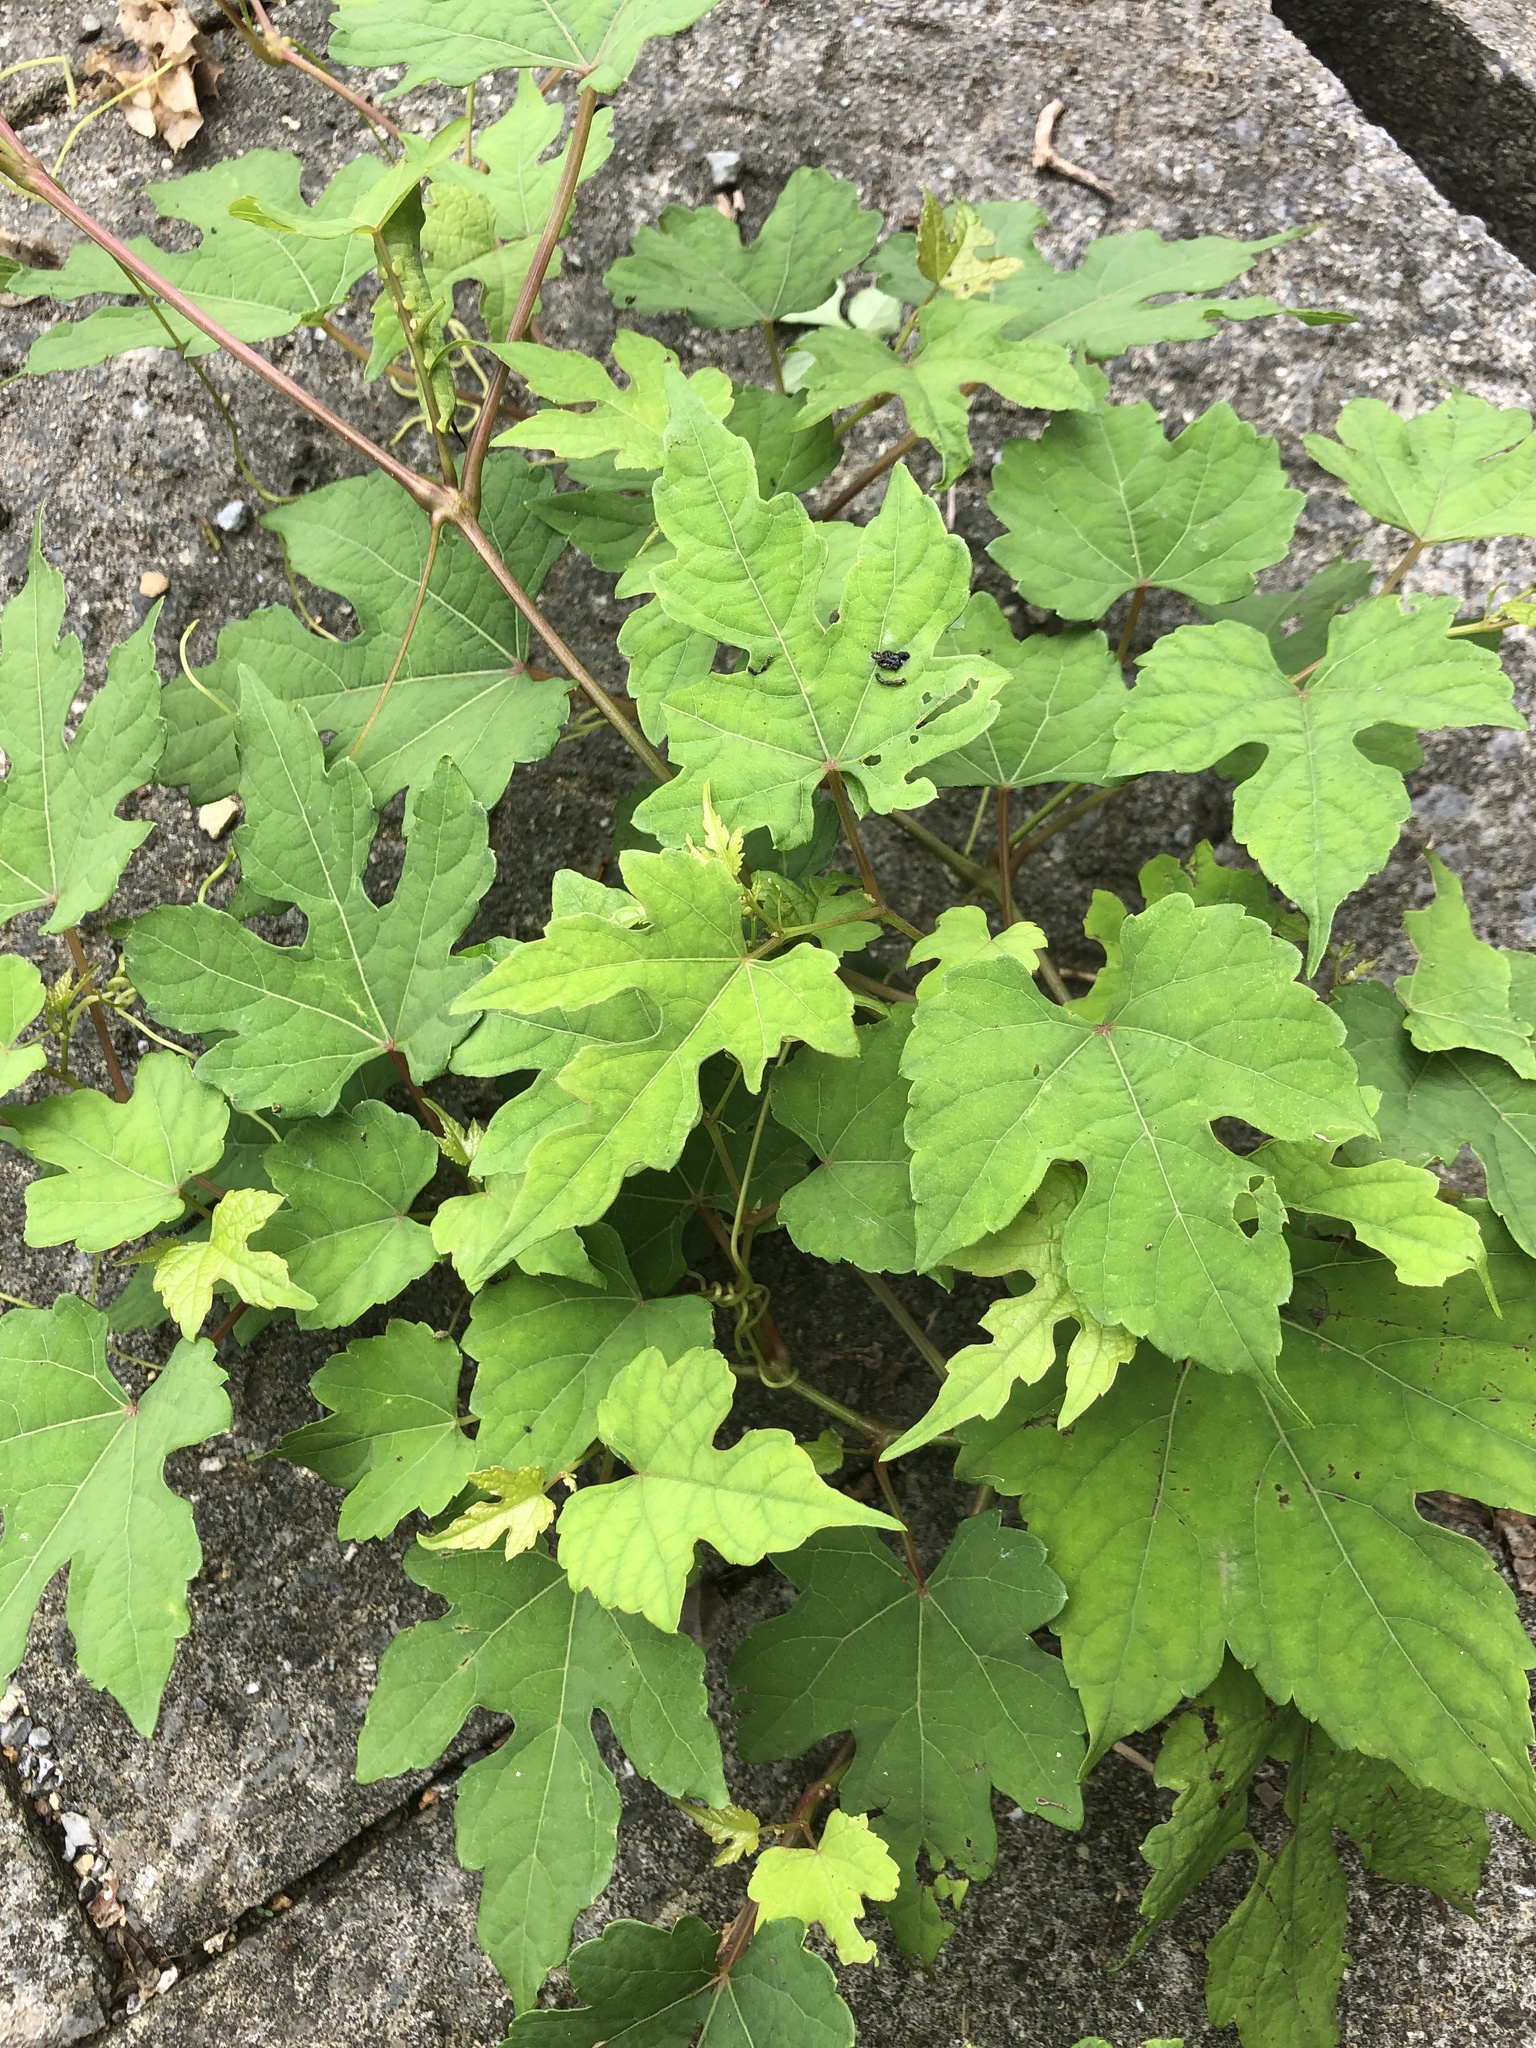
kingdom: Plantae
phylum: Tracheophyta
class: Magnoliopsida
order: Vitales
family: Vitaceae
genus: Ampelopsis
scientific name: Ampelopsis glandulosa
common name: Amur peppervine
